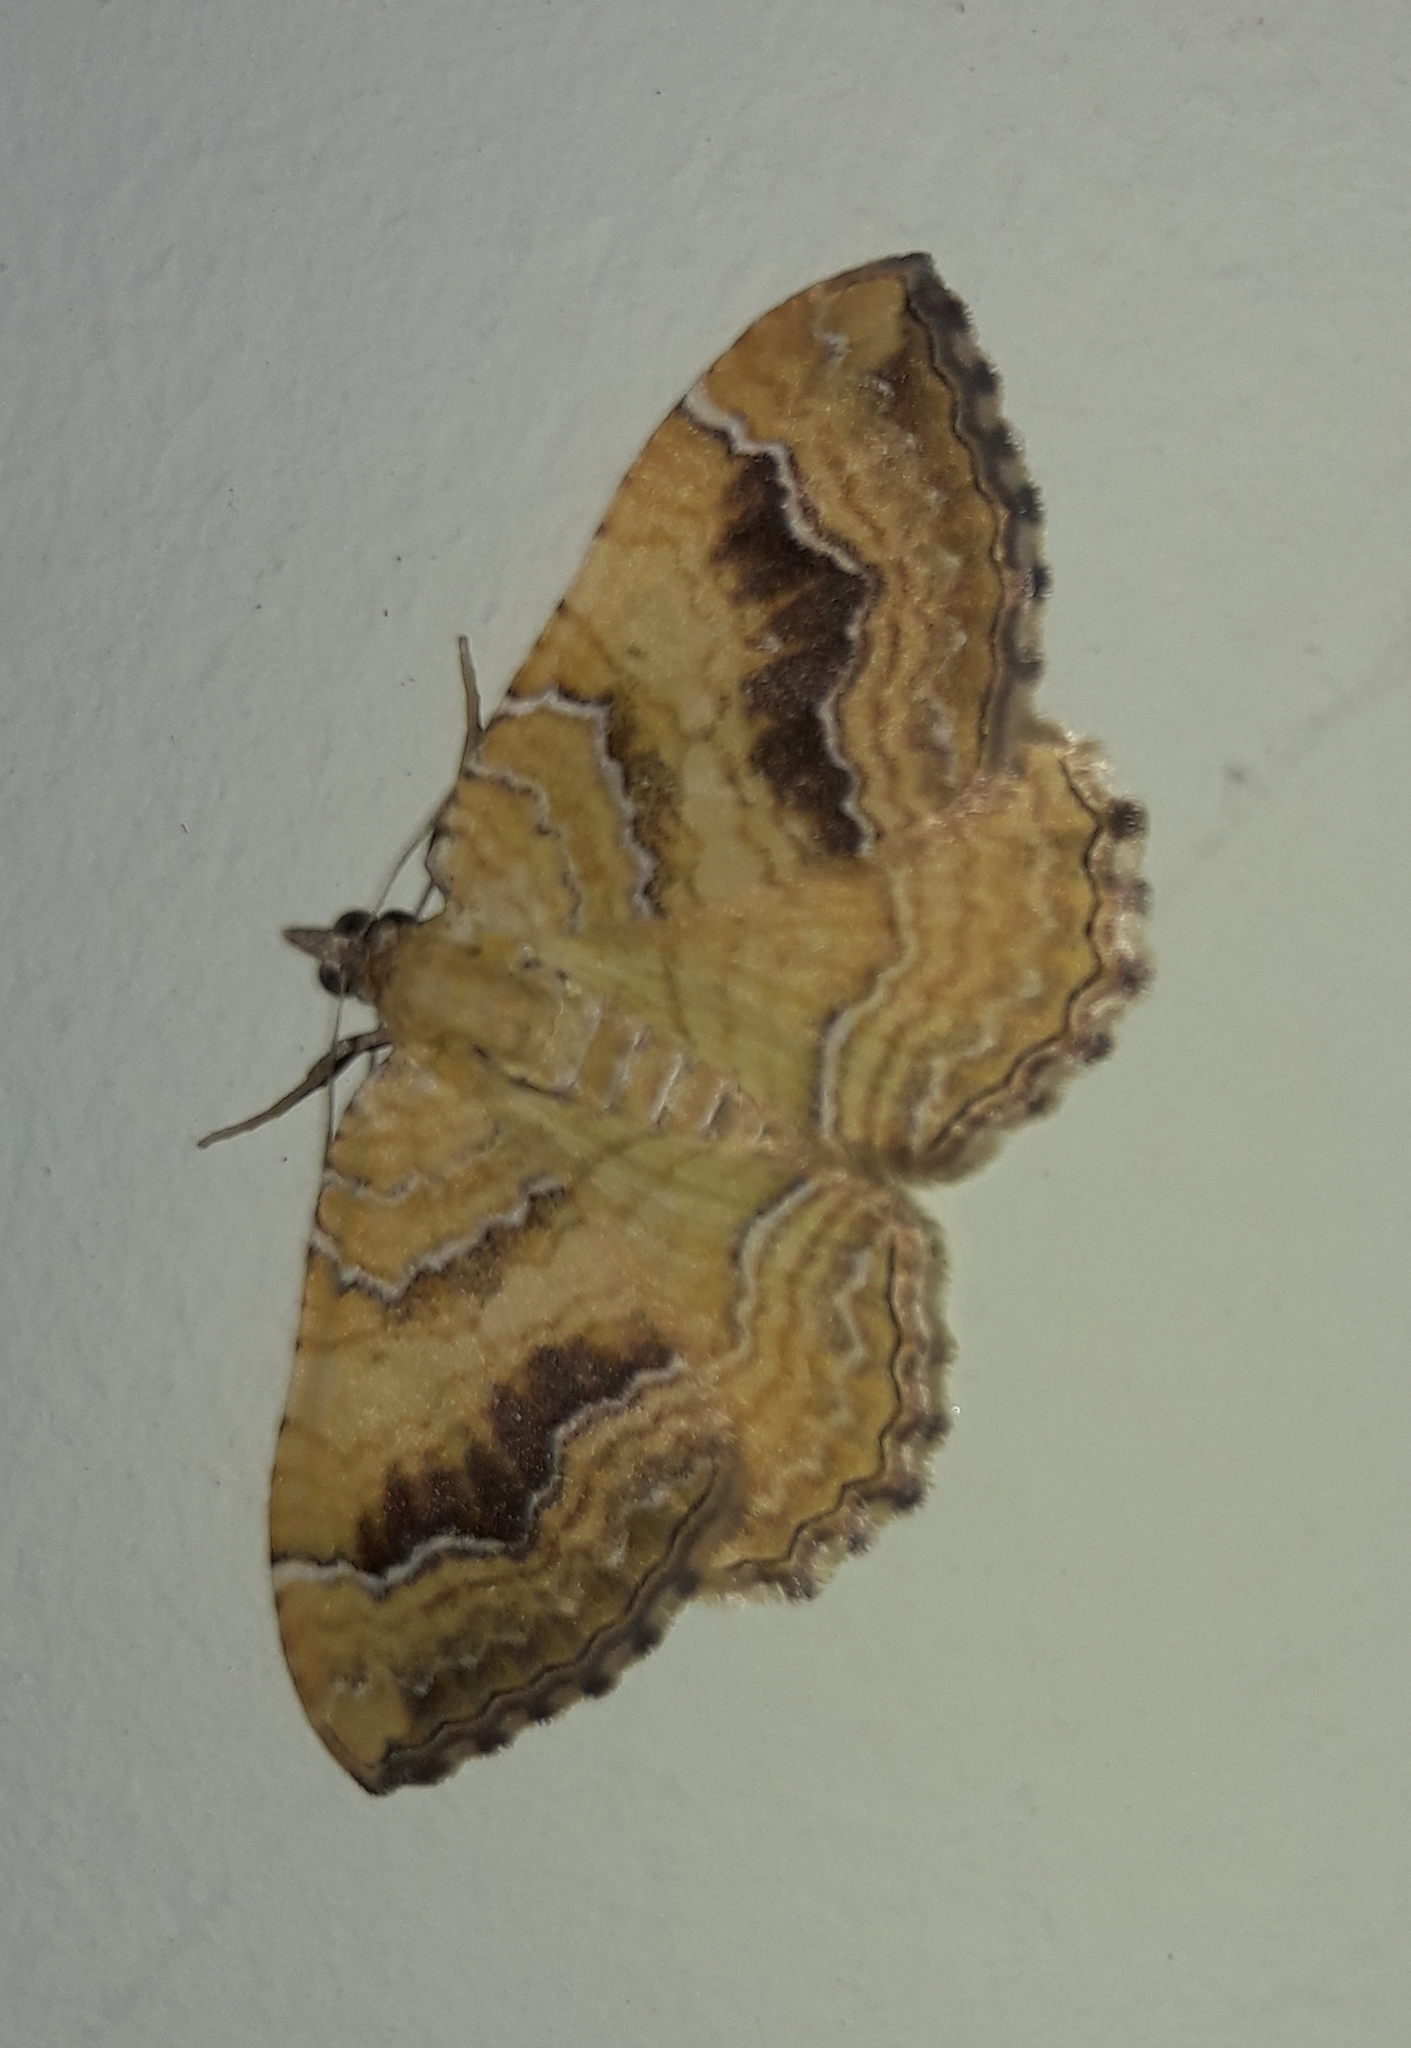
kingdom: Animalia
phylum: Arthropoda
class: Insecta
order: Lepidoptera
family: Geometridae
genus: Camptogramma
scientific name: Camptogramma bilineata
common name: Yellow shell
